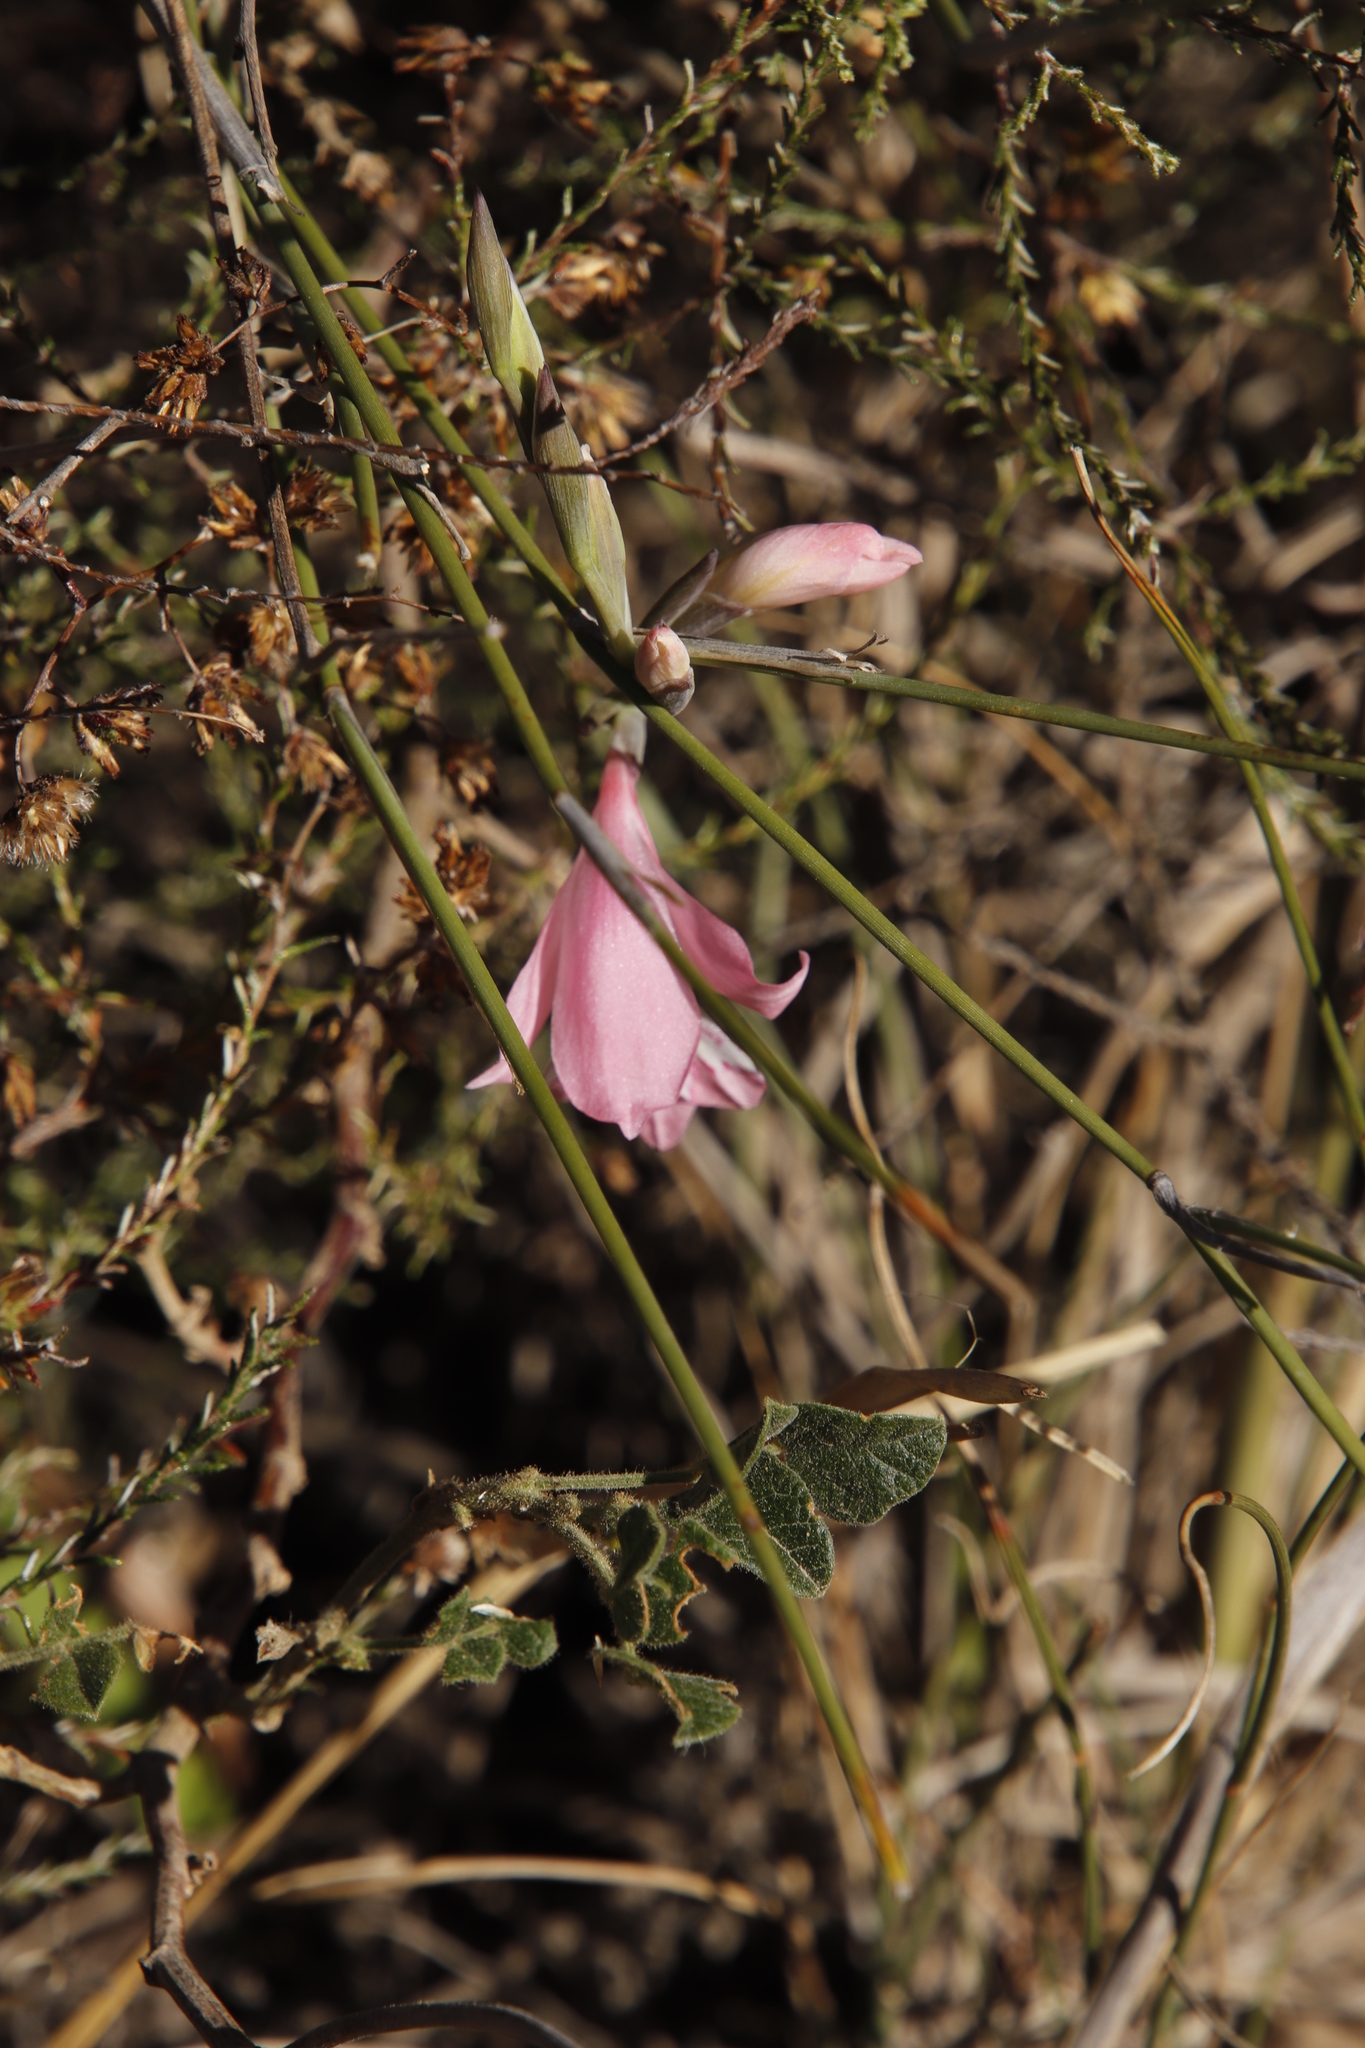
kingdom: Plantae
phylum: Tracheophyta
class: Liliopsida
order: Asparagales
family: Iridaceae
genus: Gladiolus
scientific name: Gladiolus brevifolius
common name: March pypie
